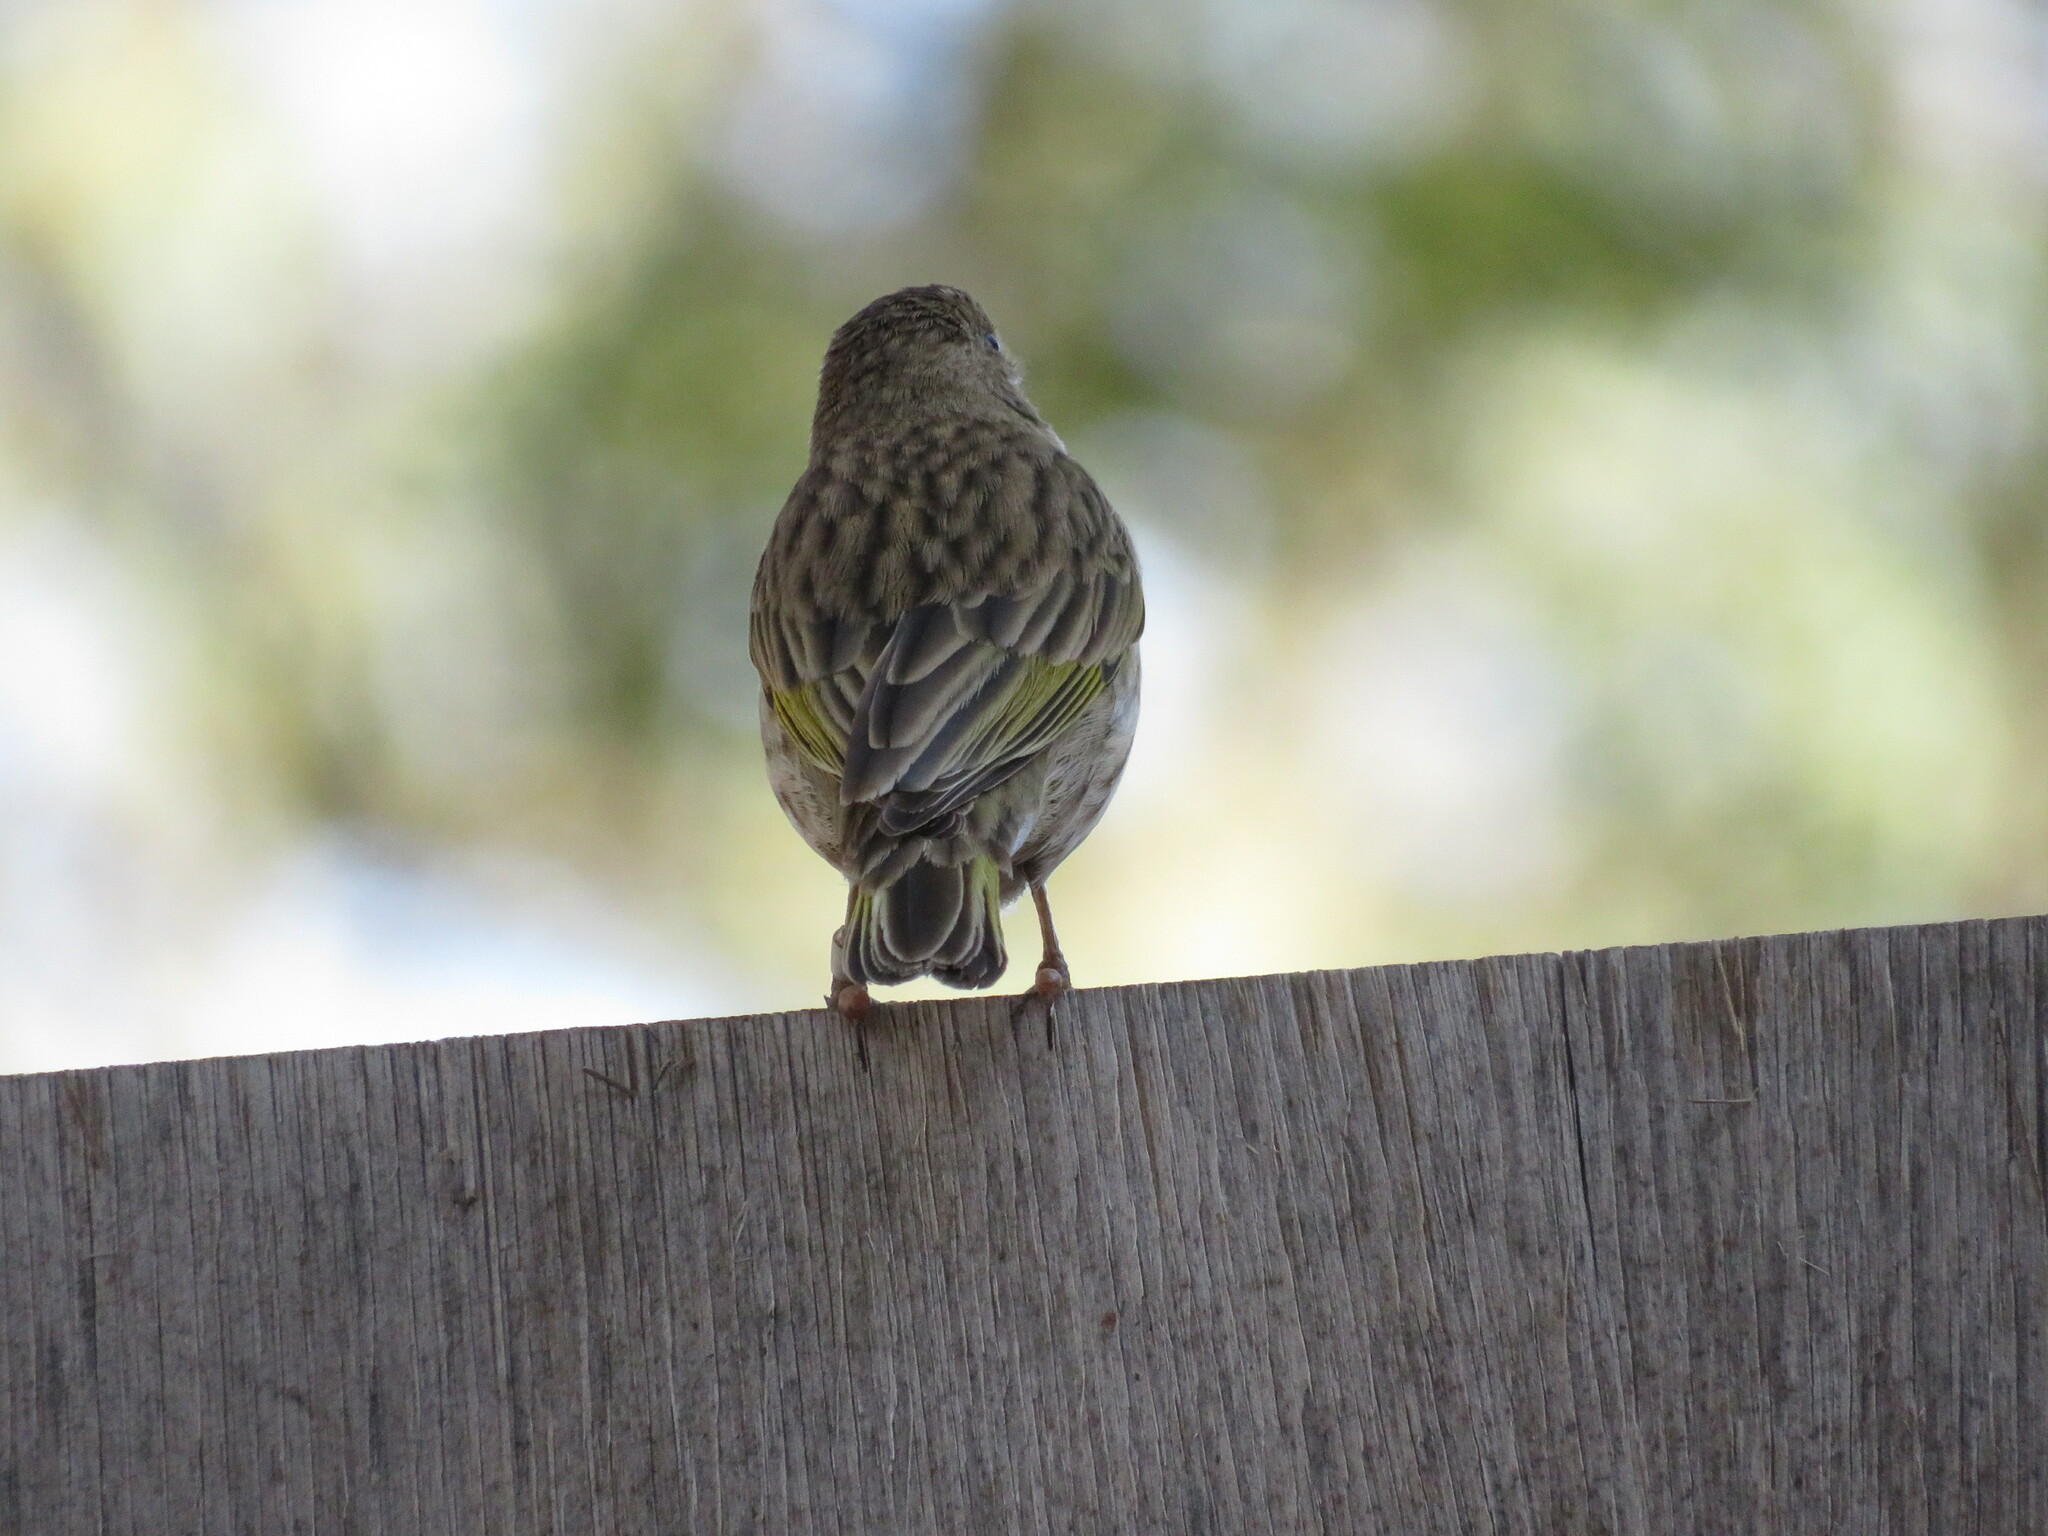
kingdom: Animalia
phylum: Chordata
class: Aves
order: Passeriformes
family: Thraupidae
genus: Sicalis
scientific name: Sicalis flaveola
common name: Saffron finch
